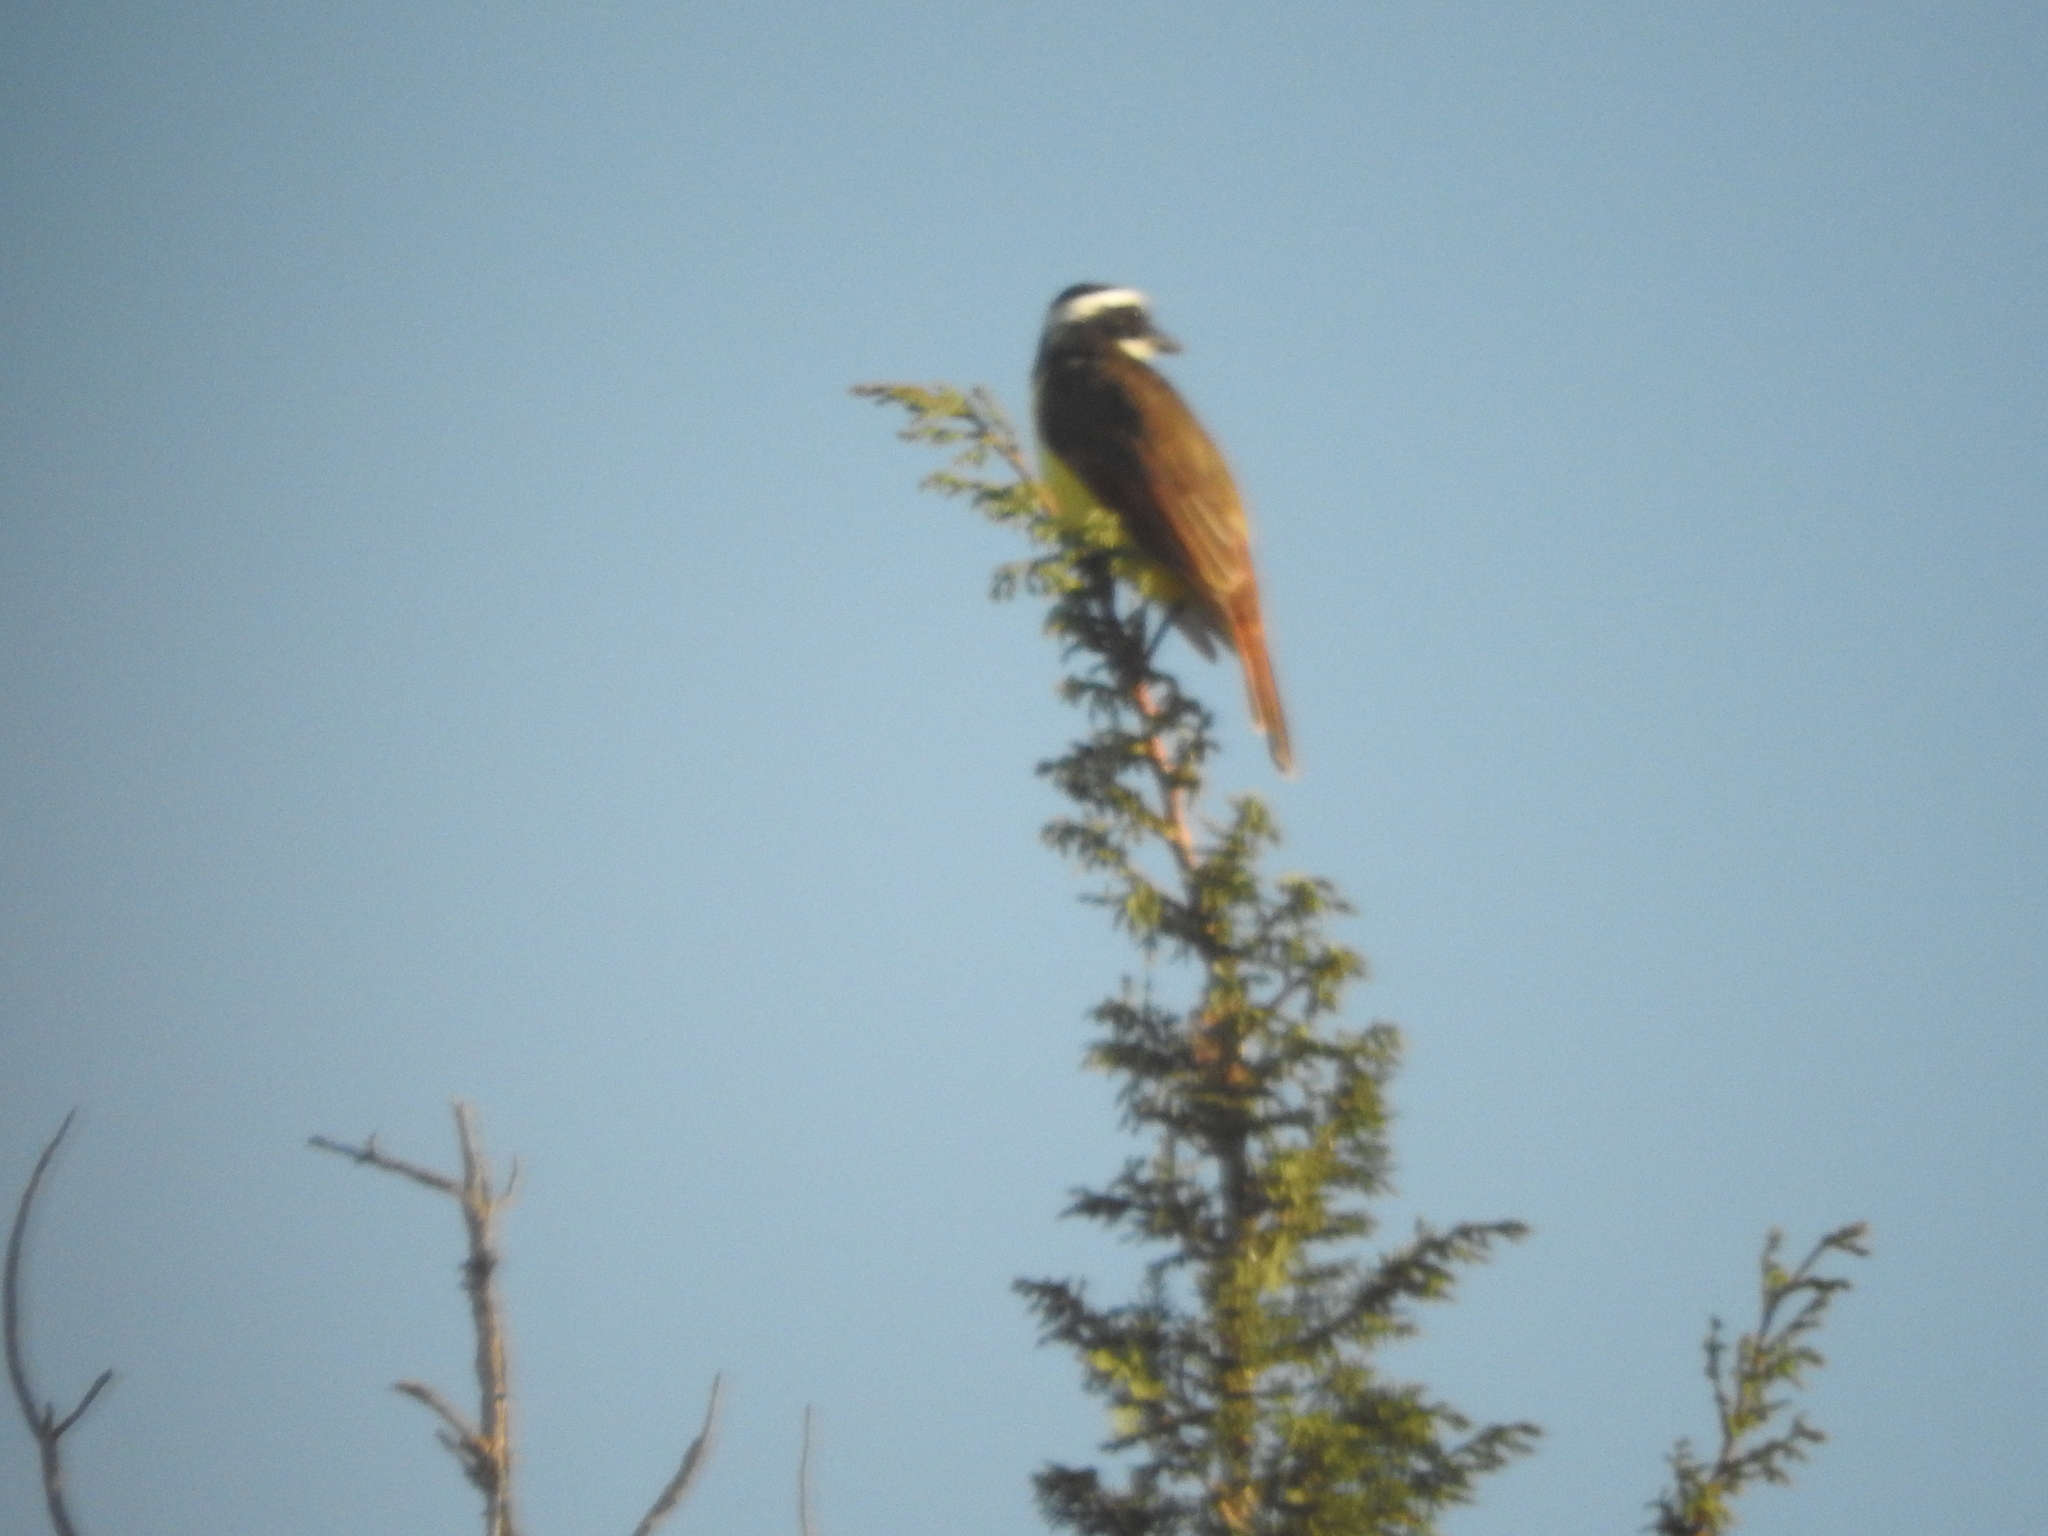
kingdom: Animalia
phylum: Chordata
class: Aves
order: Passeriformes
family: Tyrannidae
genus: Pitangus
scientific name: Pitangus sulphuratus
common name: Great kiskadee
